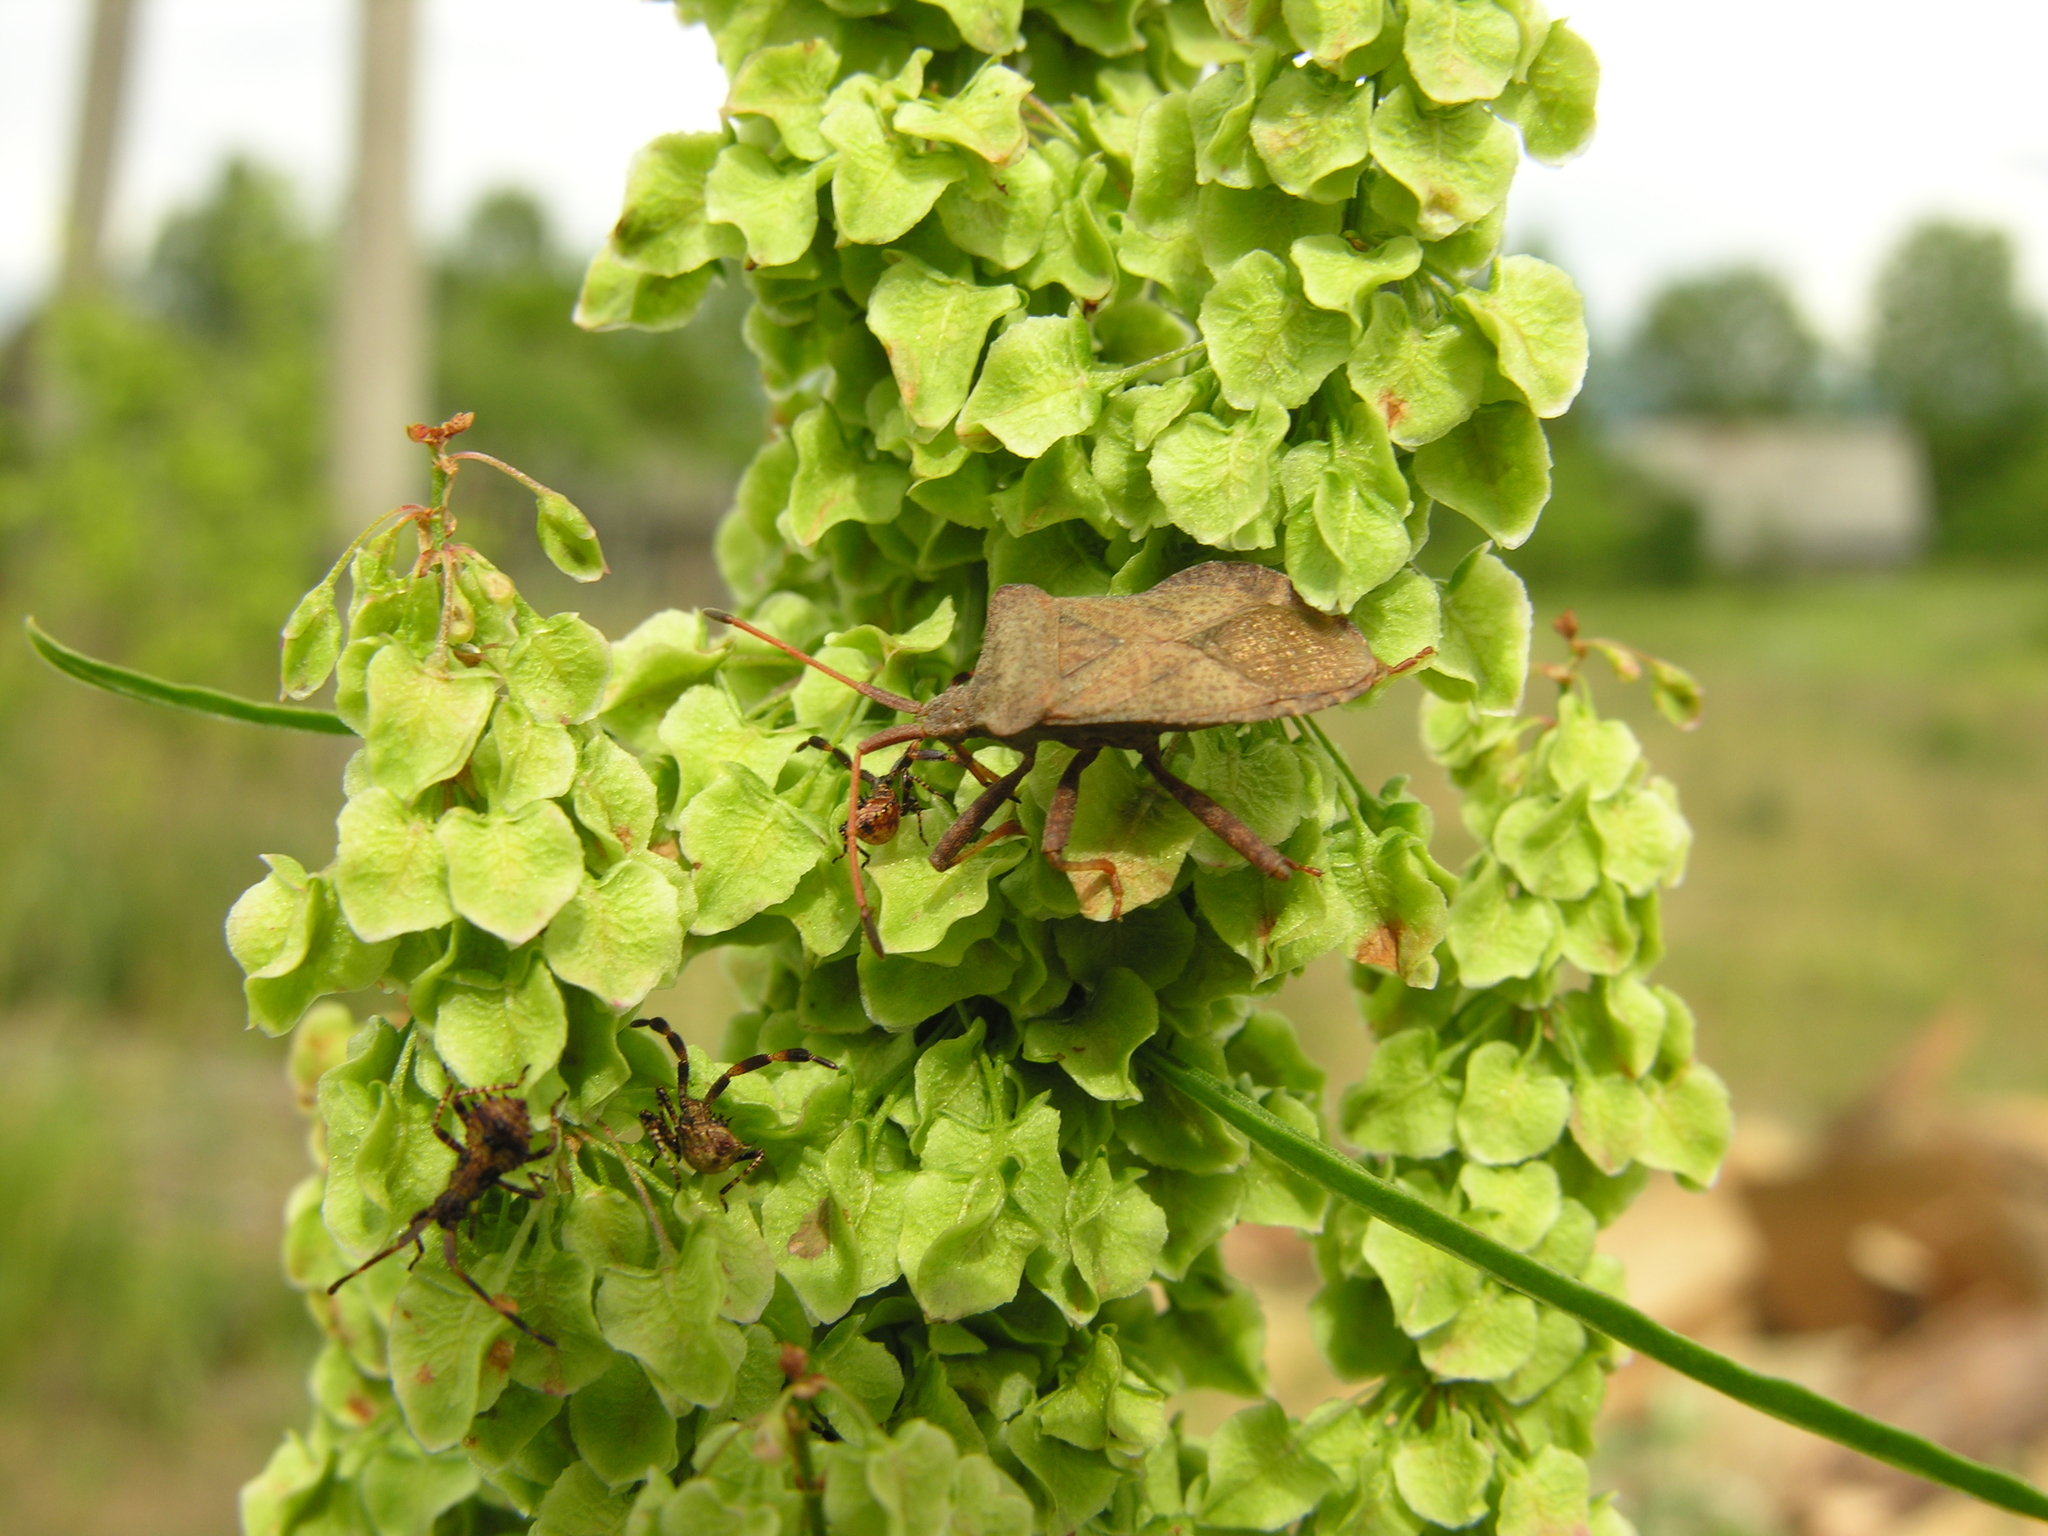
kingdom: Animalia
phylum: Arthropoda
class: Insecta
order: Hemiptera
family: Coreidae
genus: Coreus
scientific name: Coreus marginatus
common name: Dock bug
